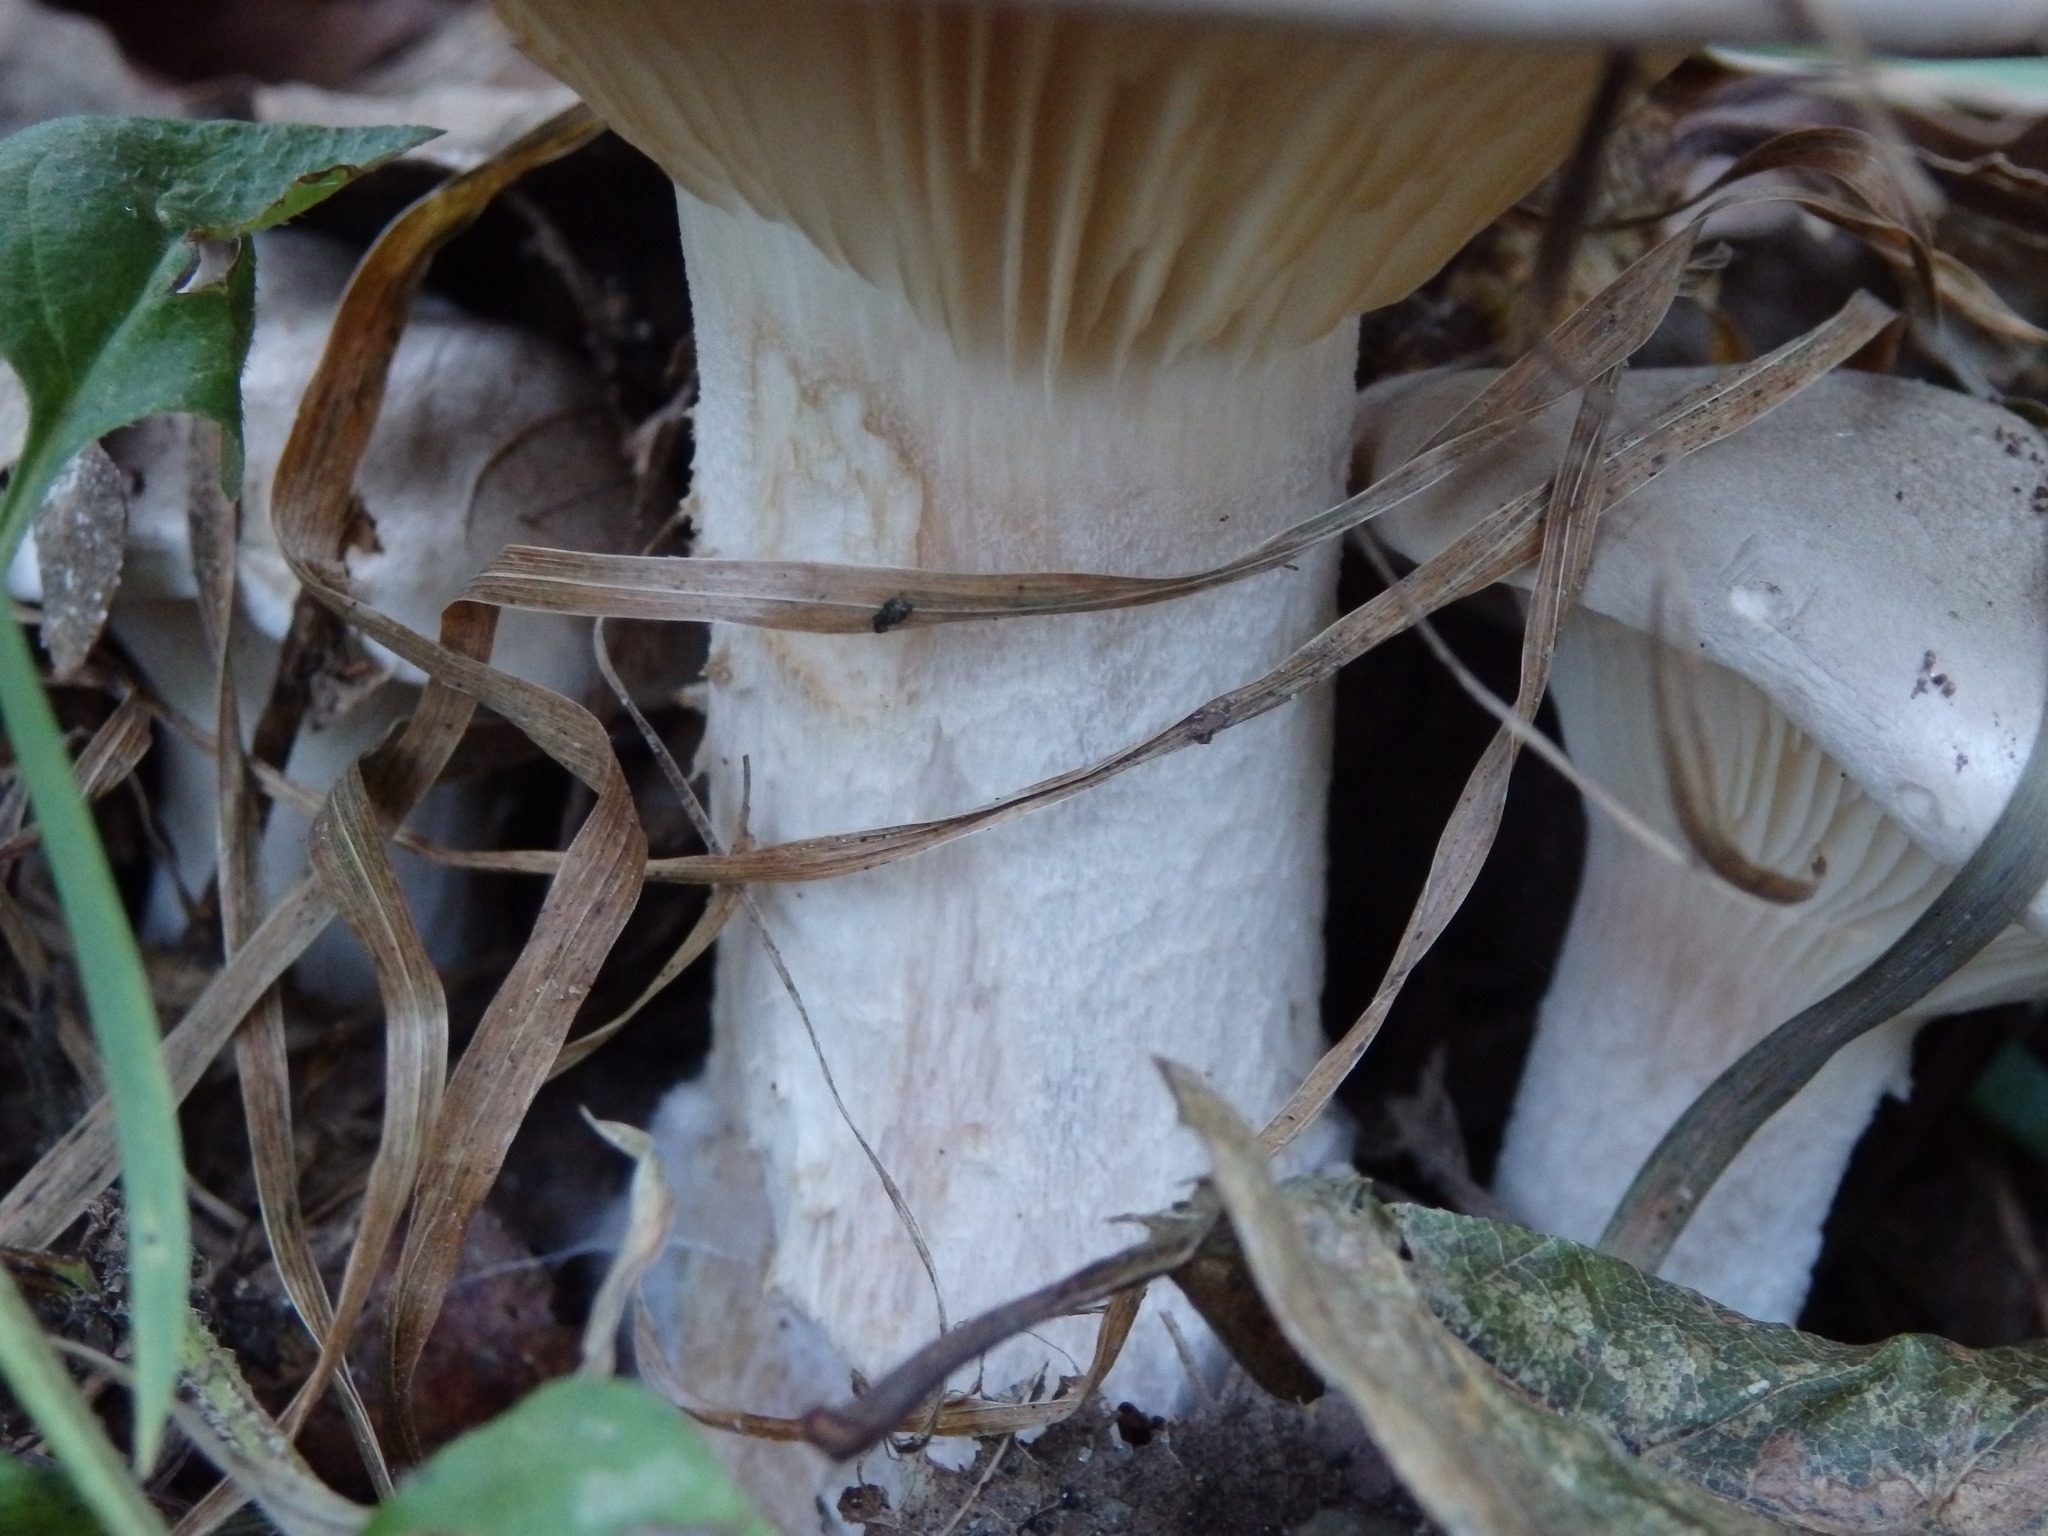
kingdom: Fungi
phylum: Basidiomycota
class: Agaricomycetes
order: Agaricales
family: Tricholomataceae
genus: Clitocybe
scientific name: Clitocybe nebularis
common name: Clouded agaric
